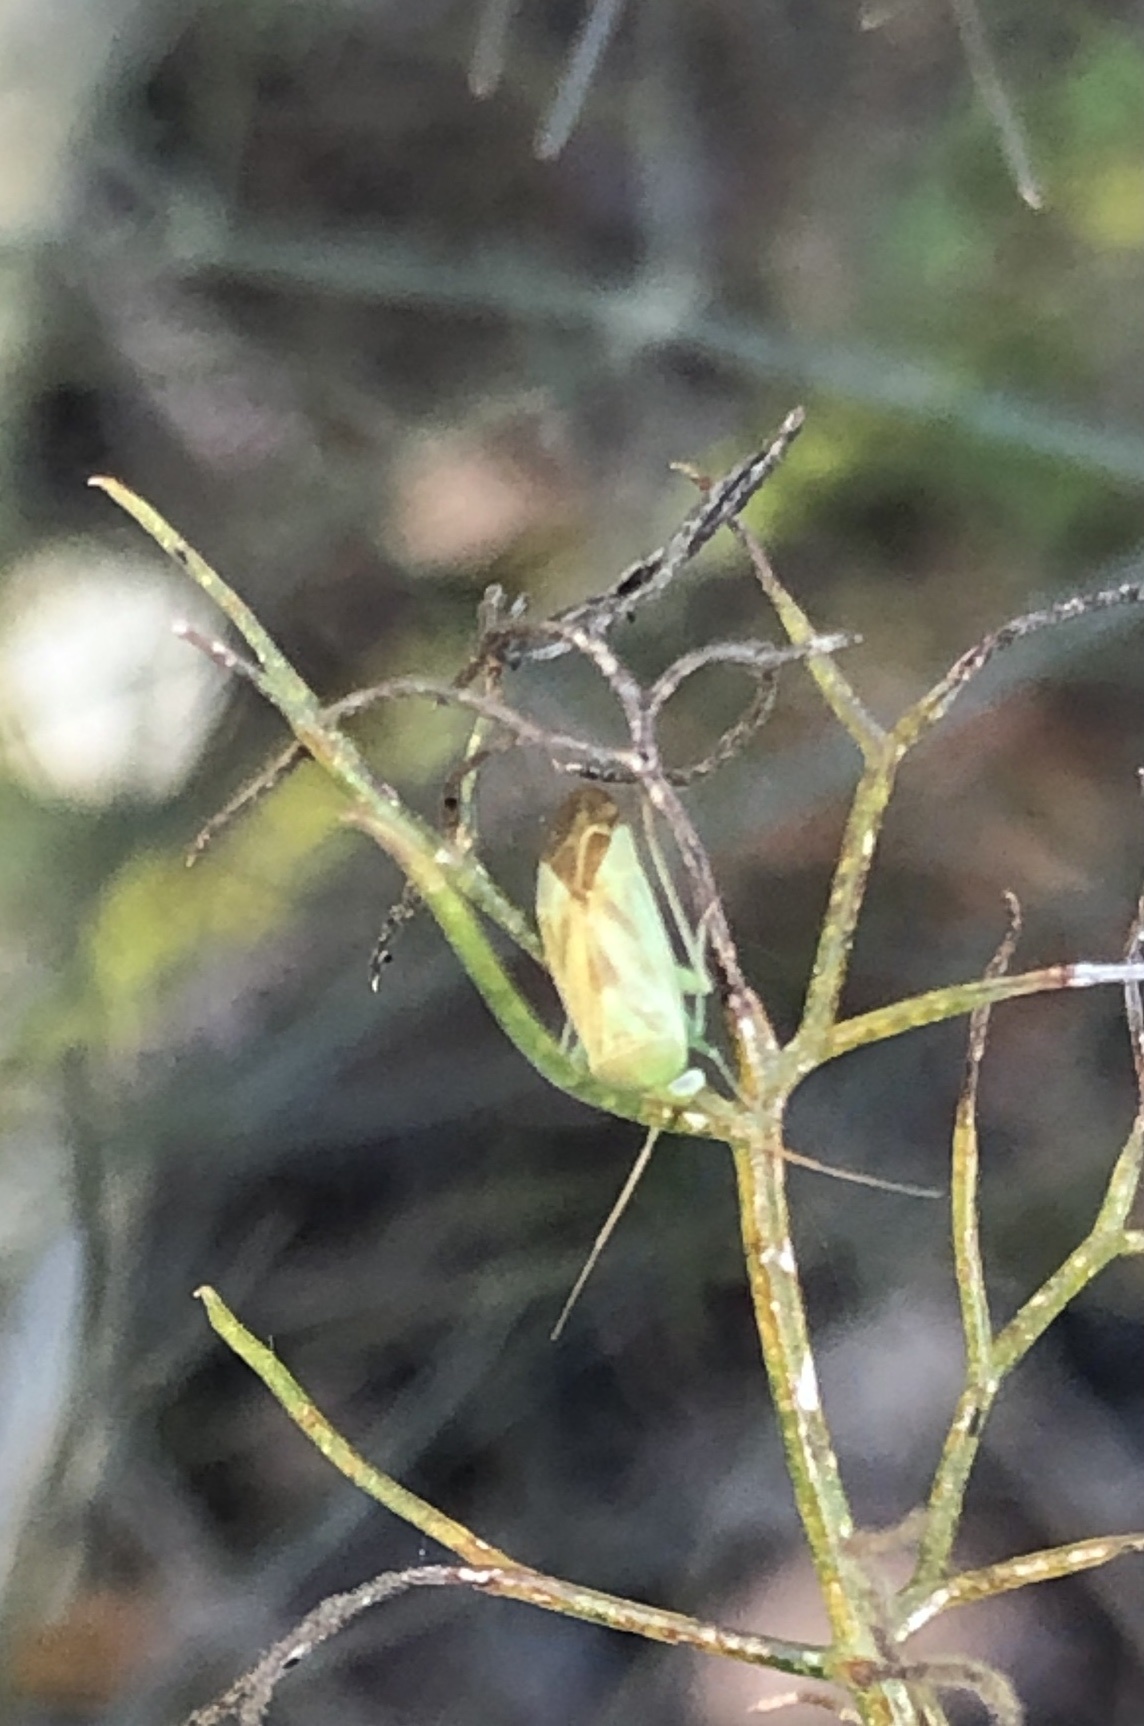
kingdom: Animalia
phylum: Arthropoda
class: Insecta
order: Hemiptera
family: Miridae
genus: Taylorilygus
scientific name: Taylorilygus apicalis
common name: Plant bug
